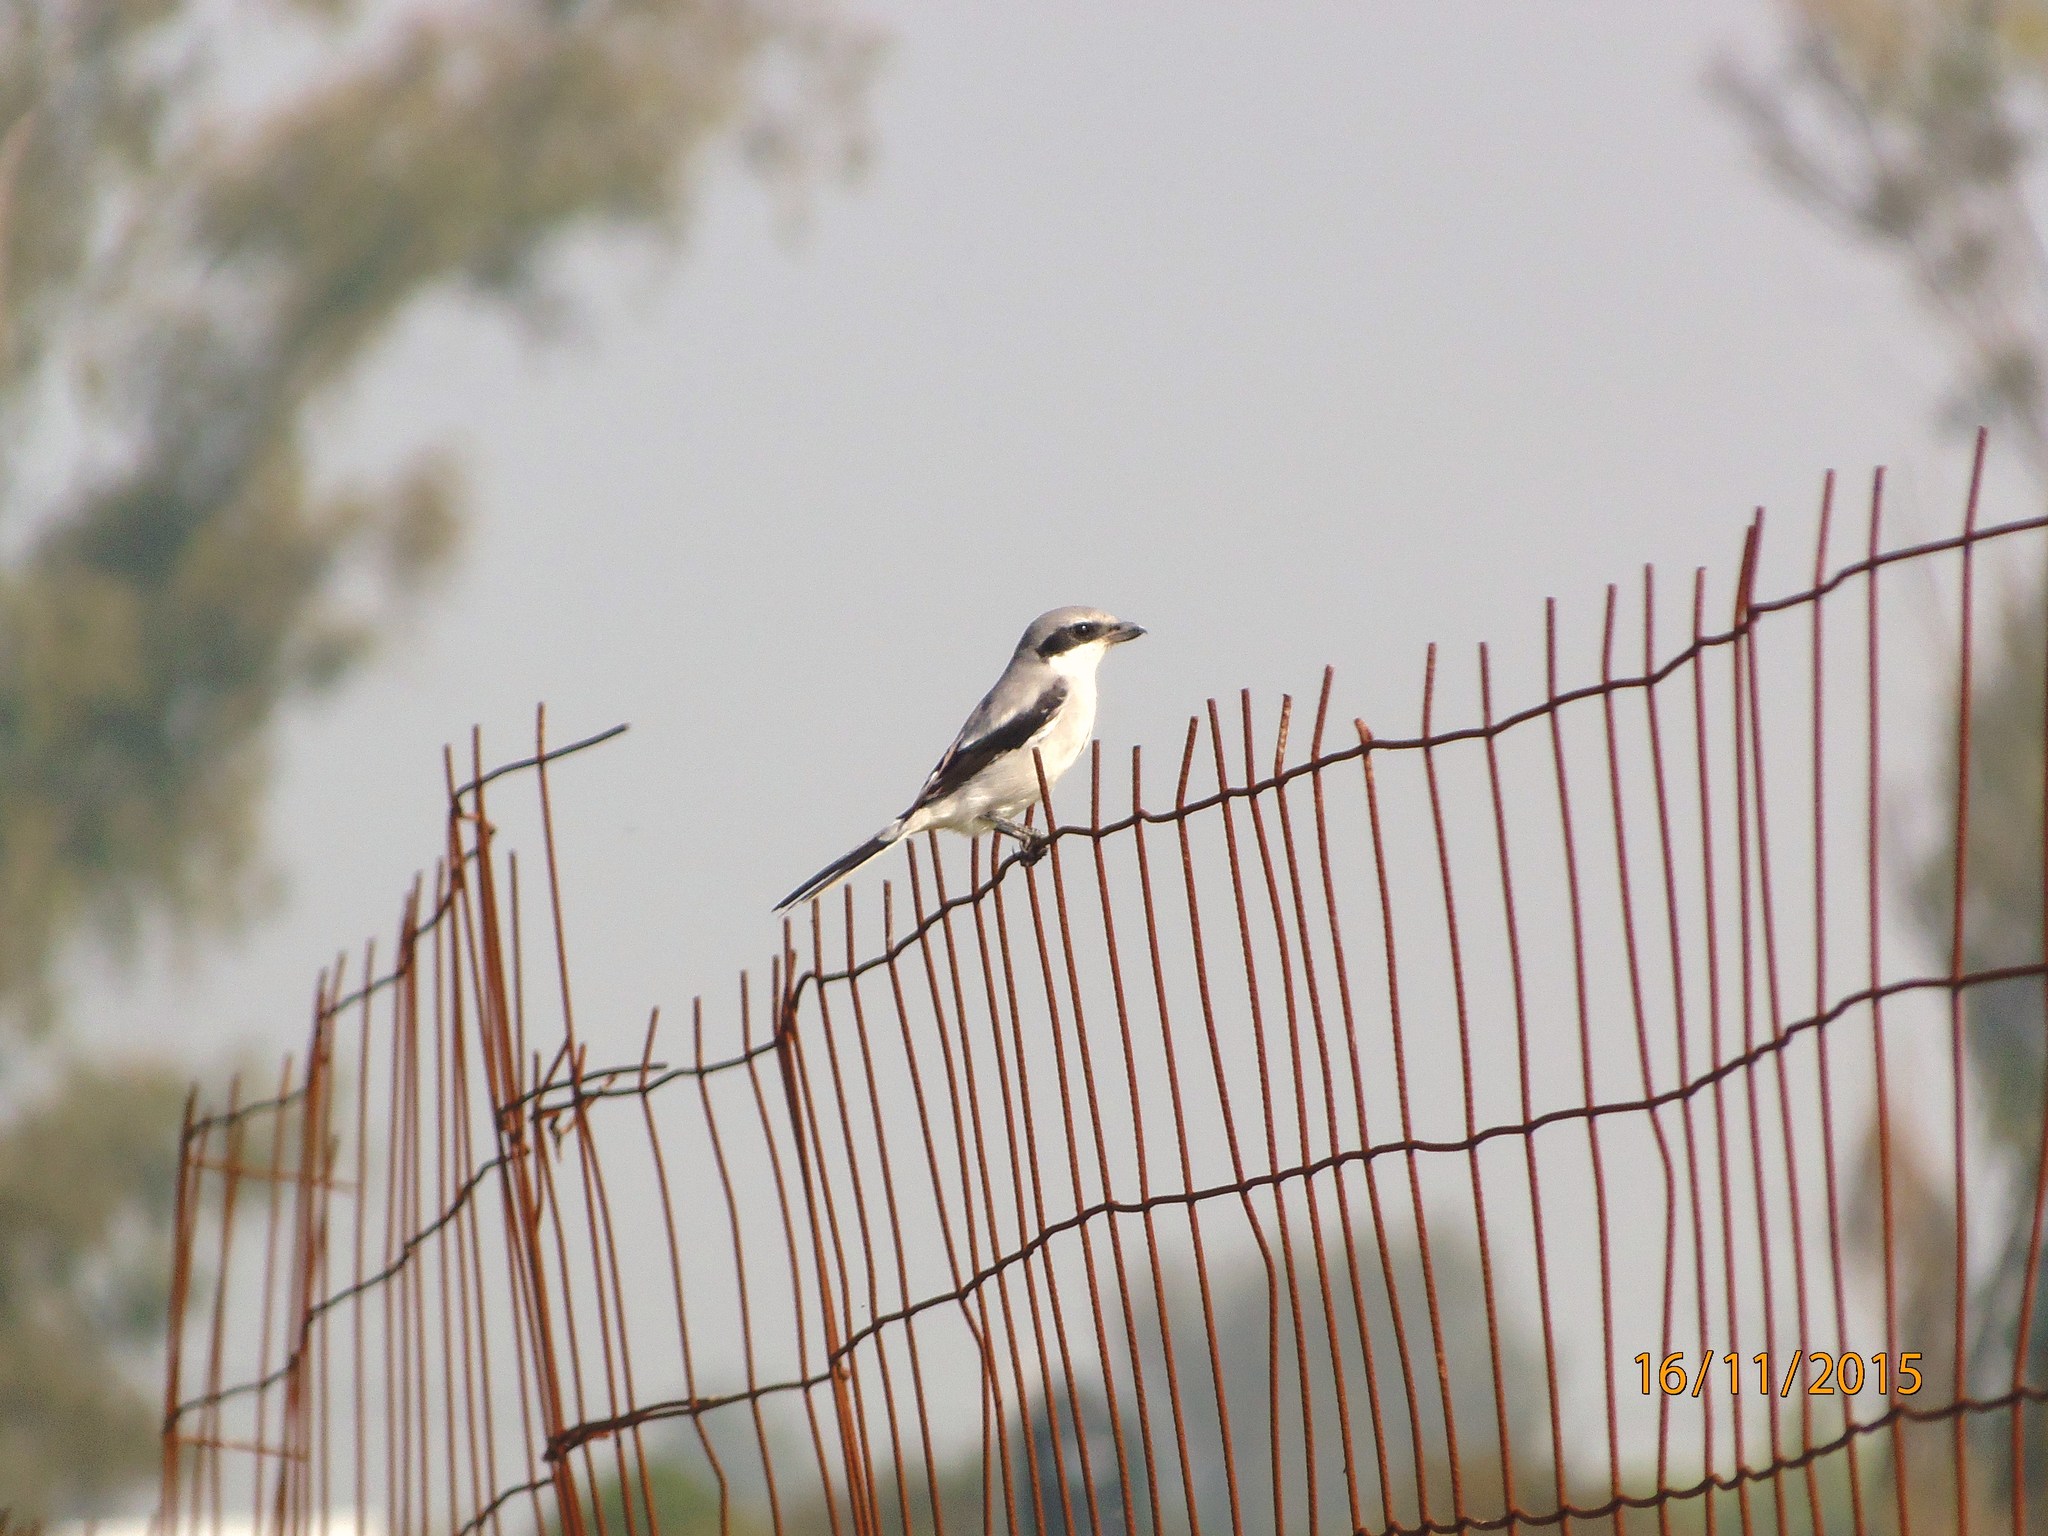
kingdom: Animalia
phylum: Chordata
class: Aves
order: Passeriformes
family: Laniidae
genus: Lanius
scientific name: Lanius ludovicianus
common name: Loggerhead shrike
